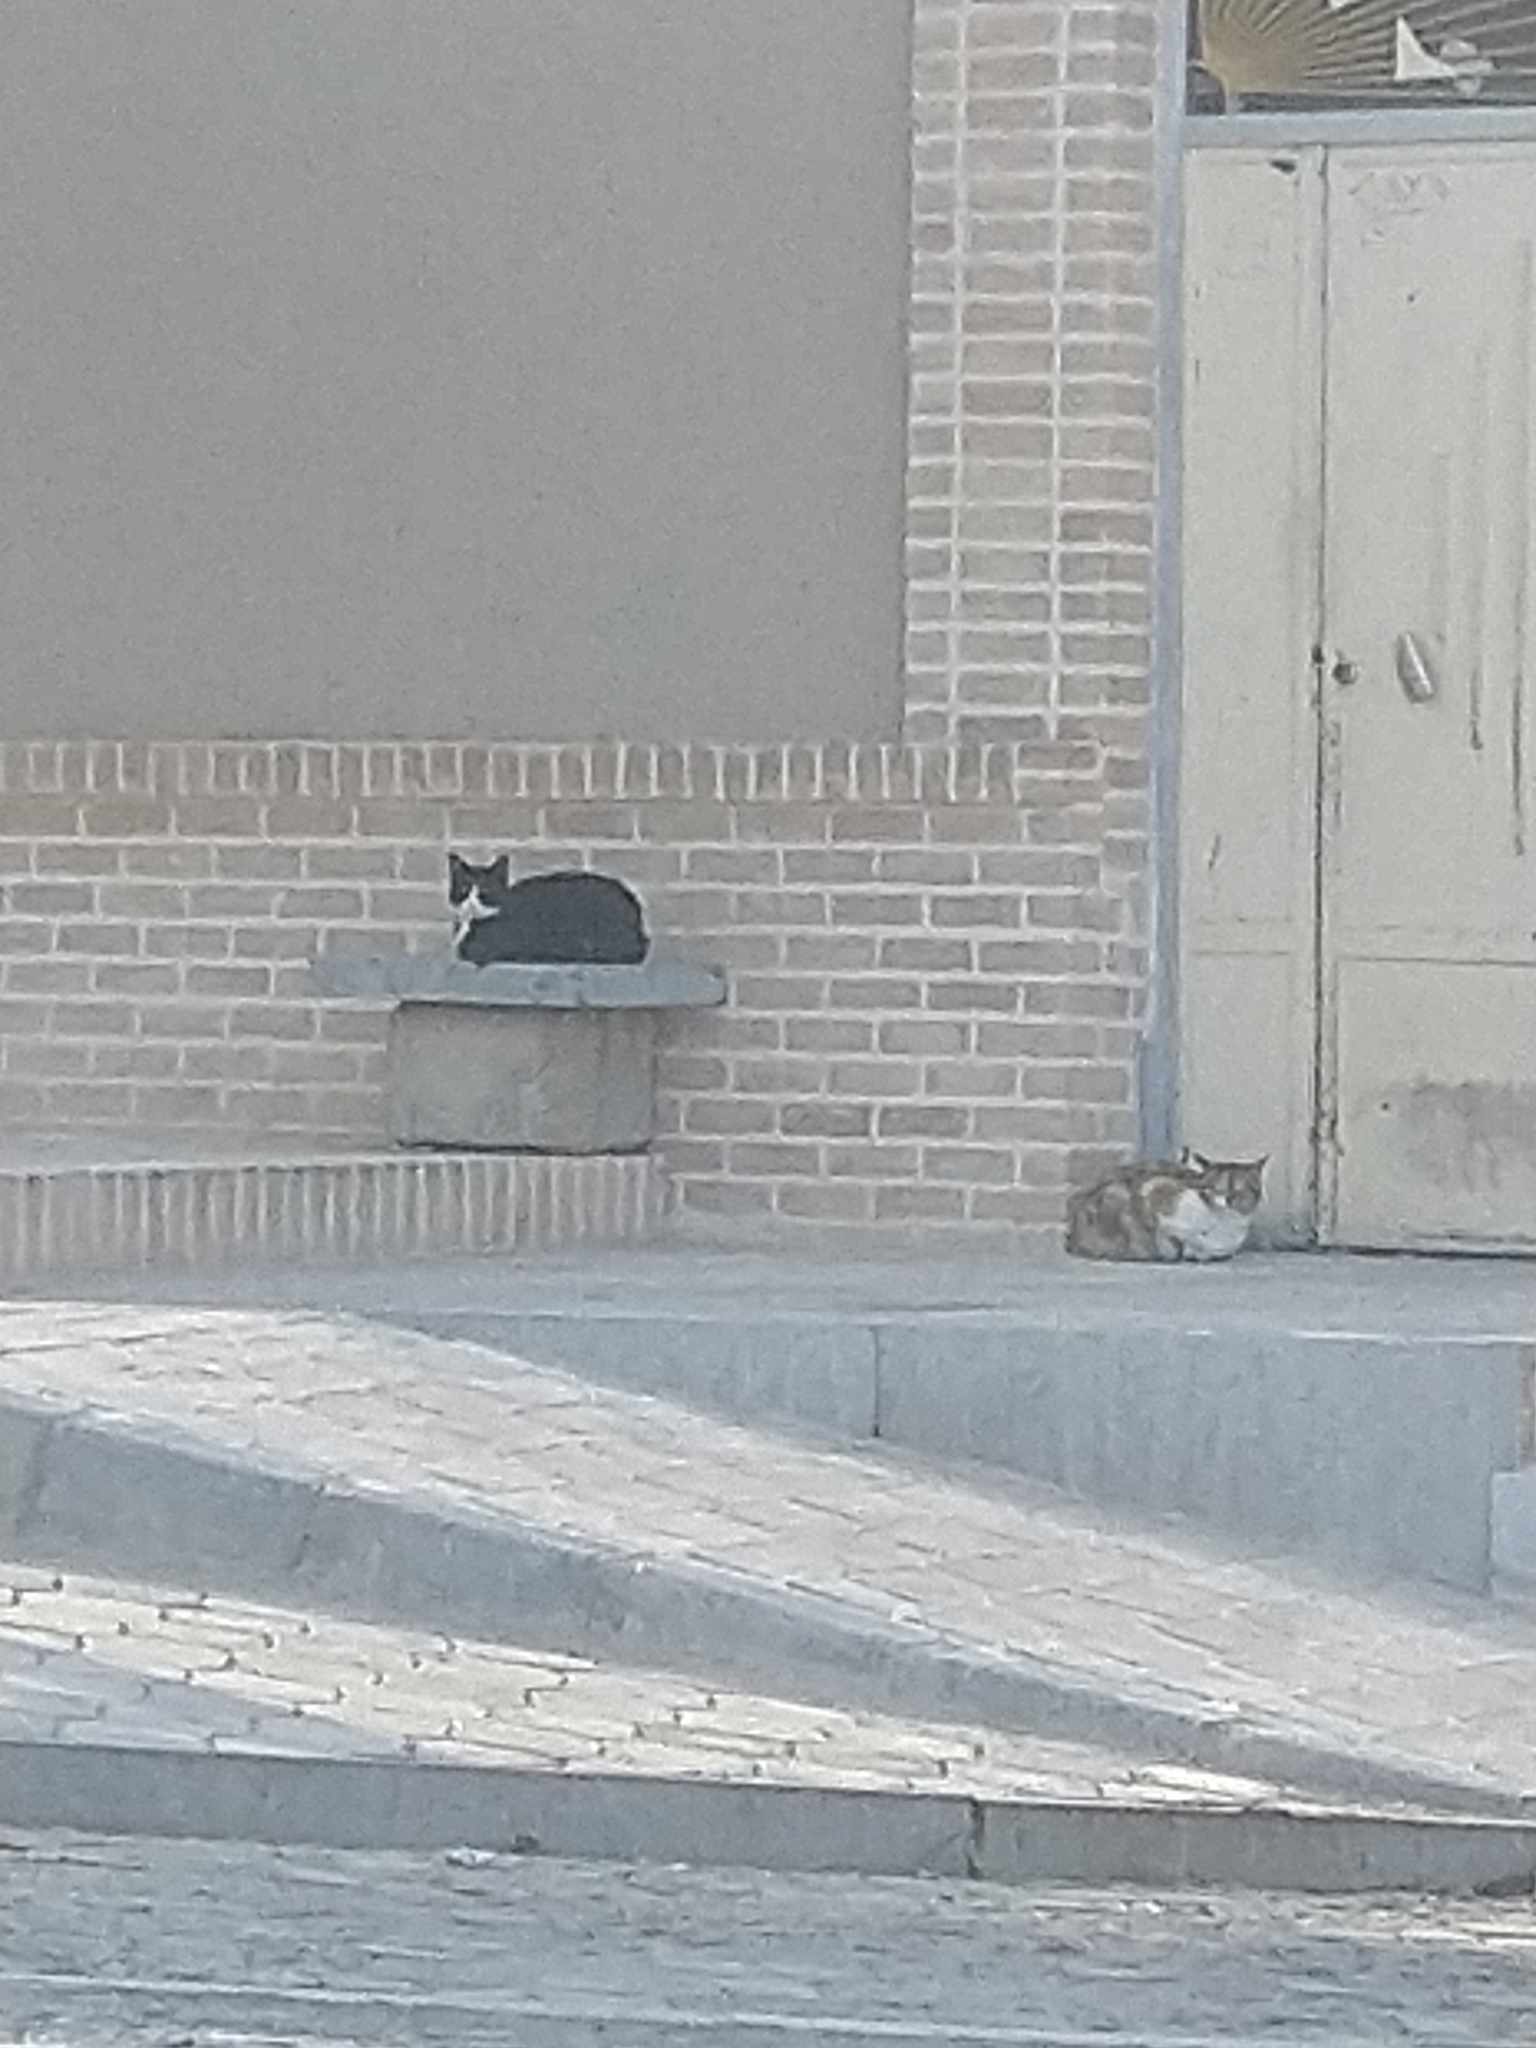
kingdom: Animalia
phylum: Chordata
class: Mammalia
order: Carnivora
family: Felidae
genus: Felis
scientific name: Felis catus
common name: Domestic cat
